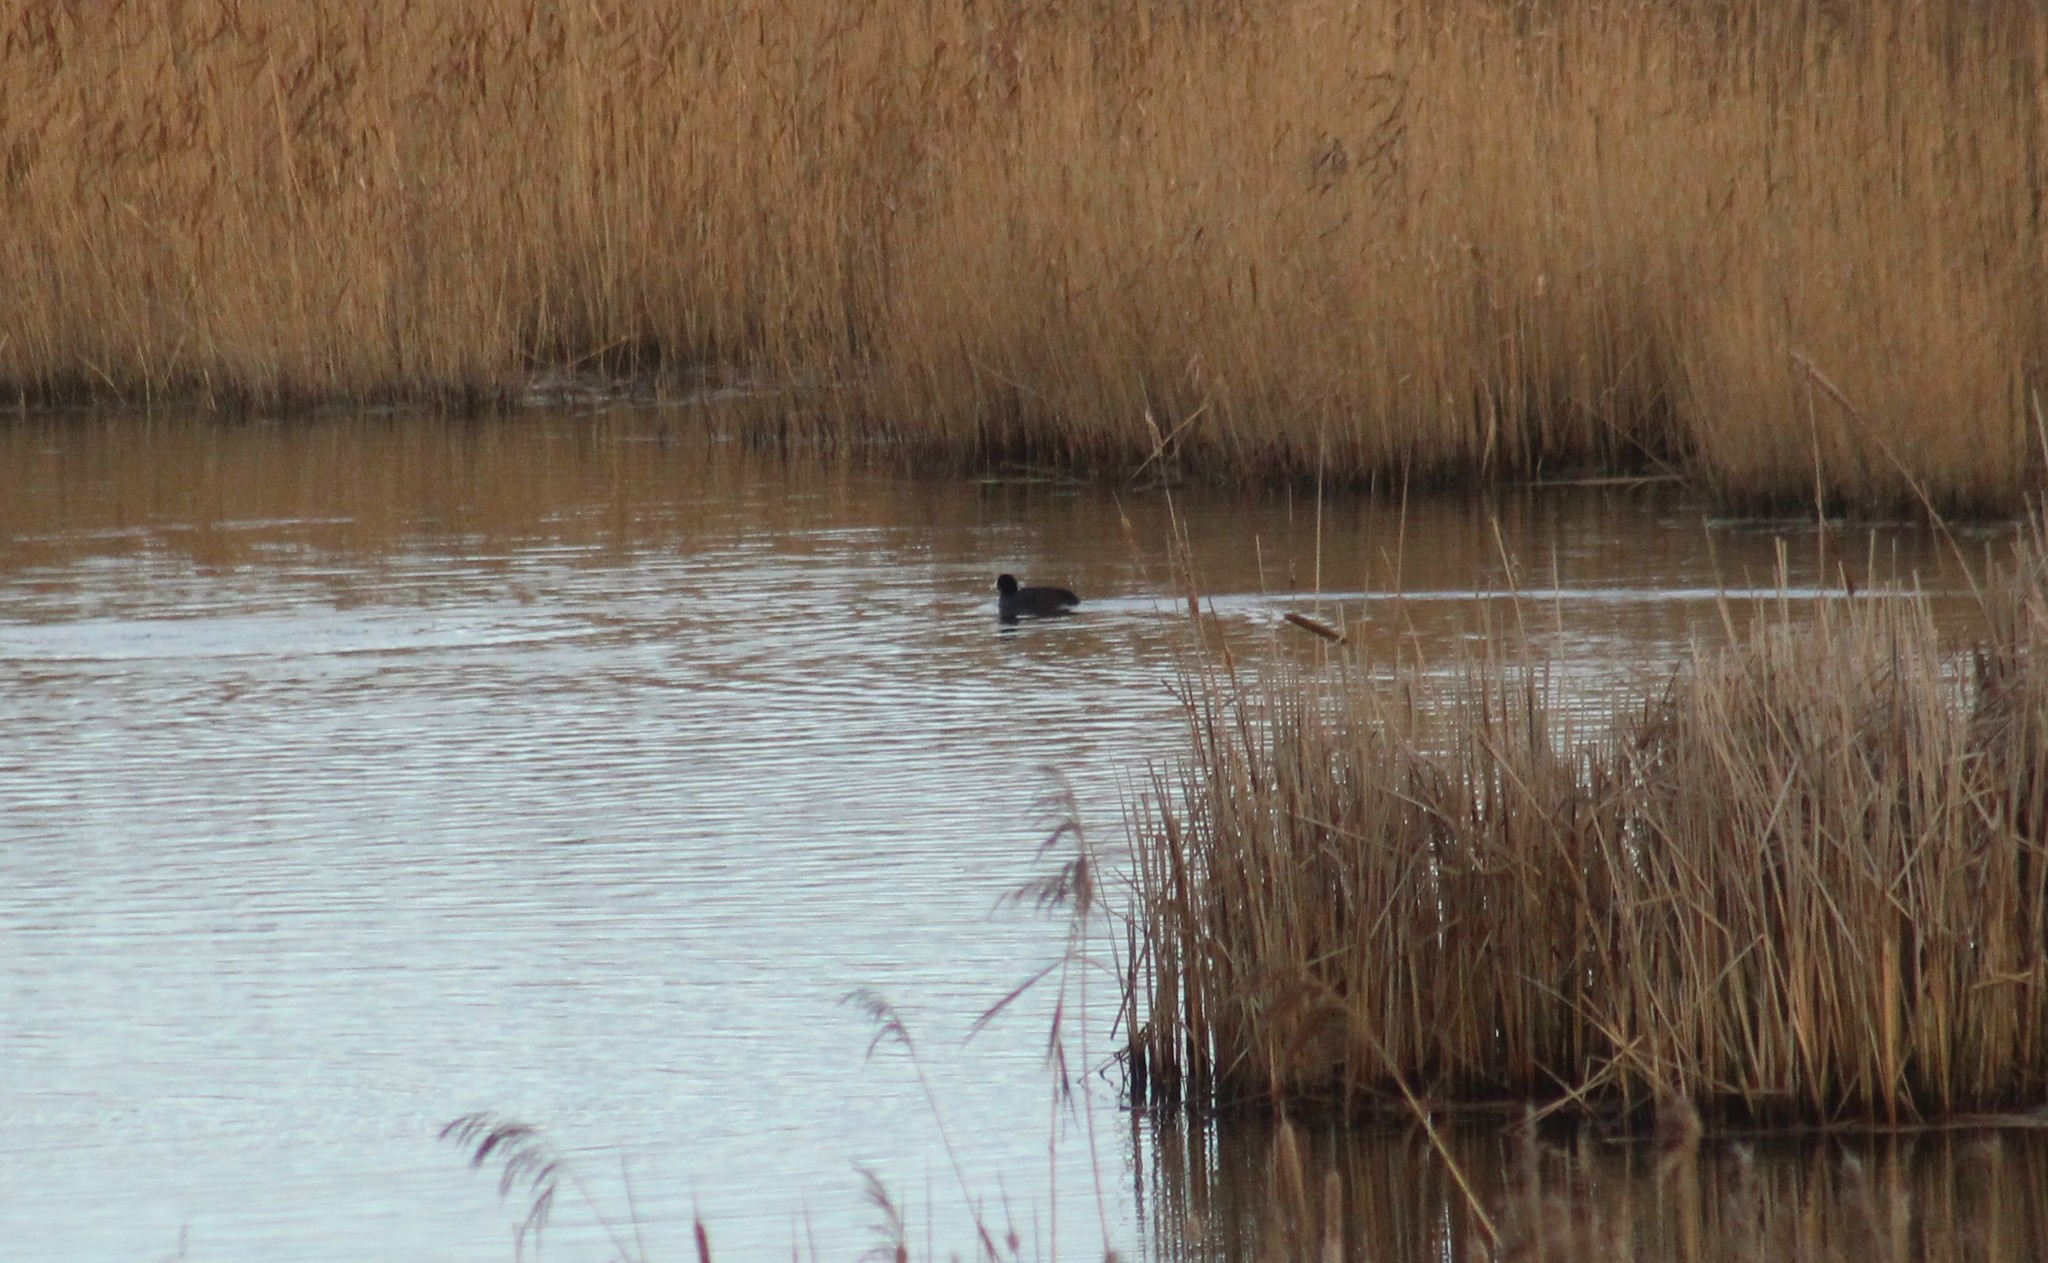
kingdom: Animalia
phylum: Chordata
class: Aves
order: Gruiformes
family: Rallidae
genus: Fulica
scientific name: Fulica atra
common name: Eurasian coot
